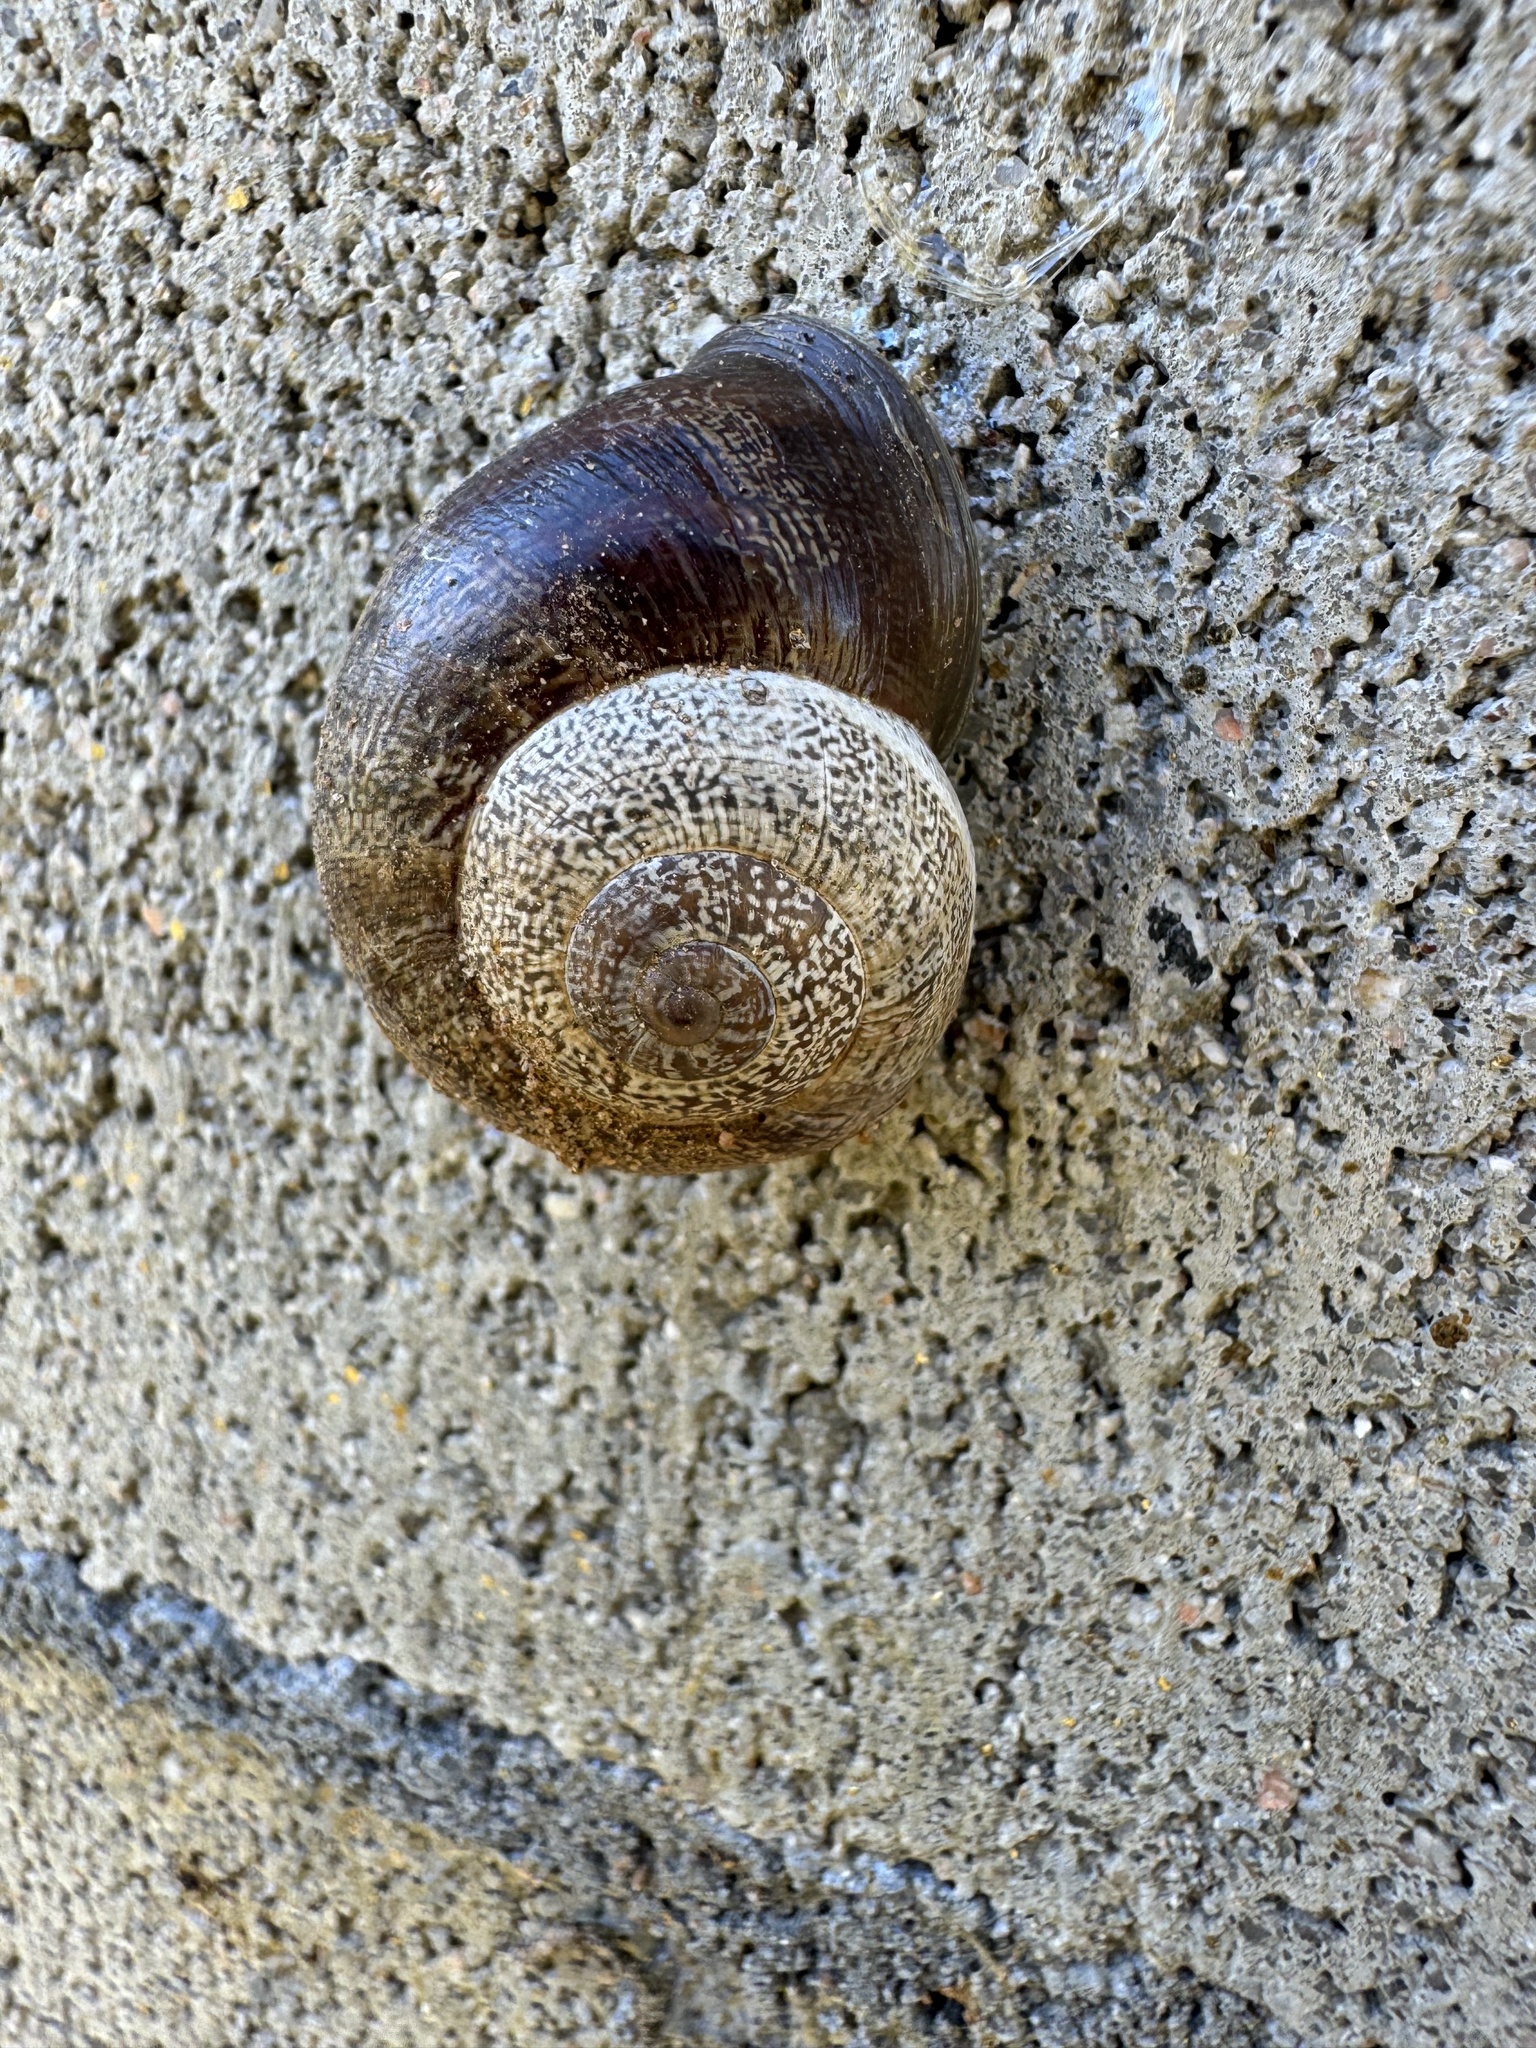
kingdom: Animalia
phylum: Mollusca
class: Gastropoda
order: Stylommatophora
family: Helicidae
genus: Otala
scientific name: Otala lactea
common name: Milk snail
